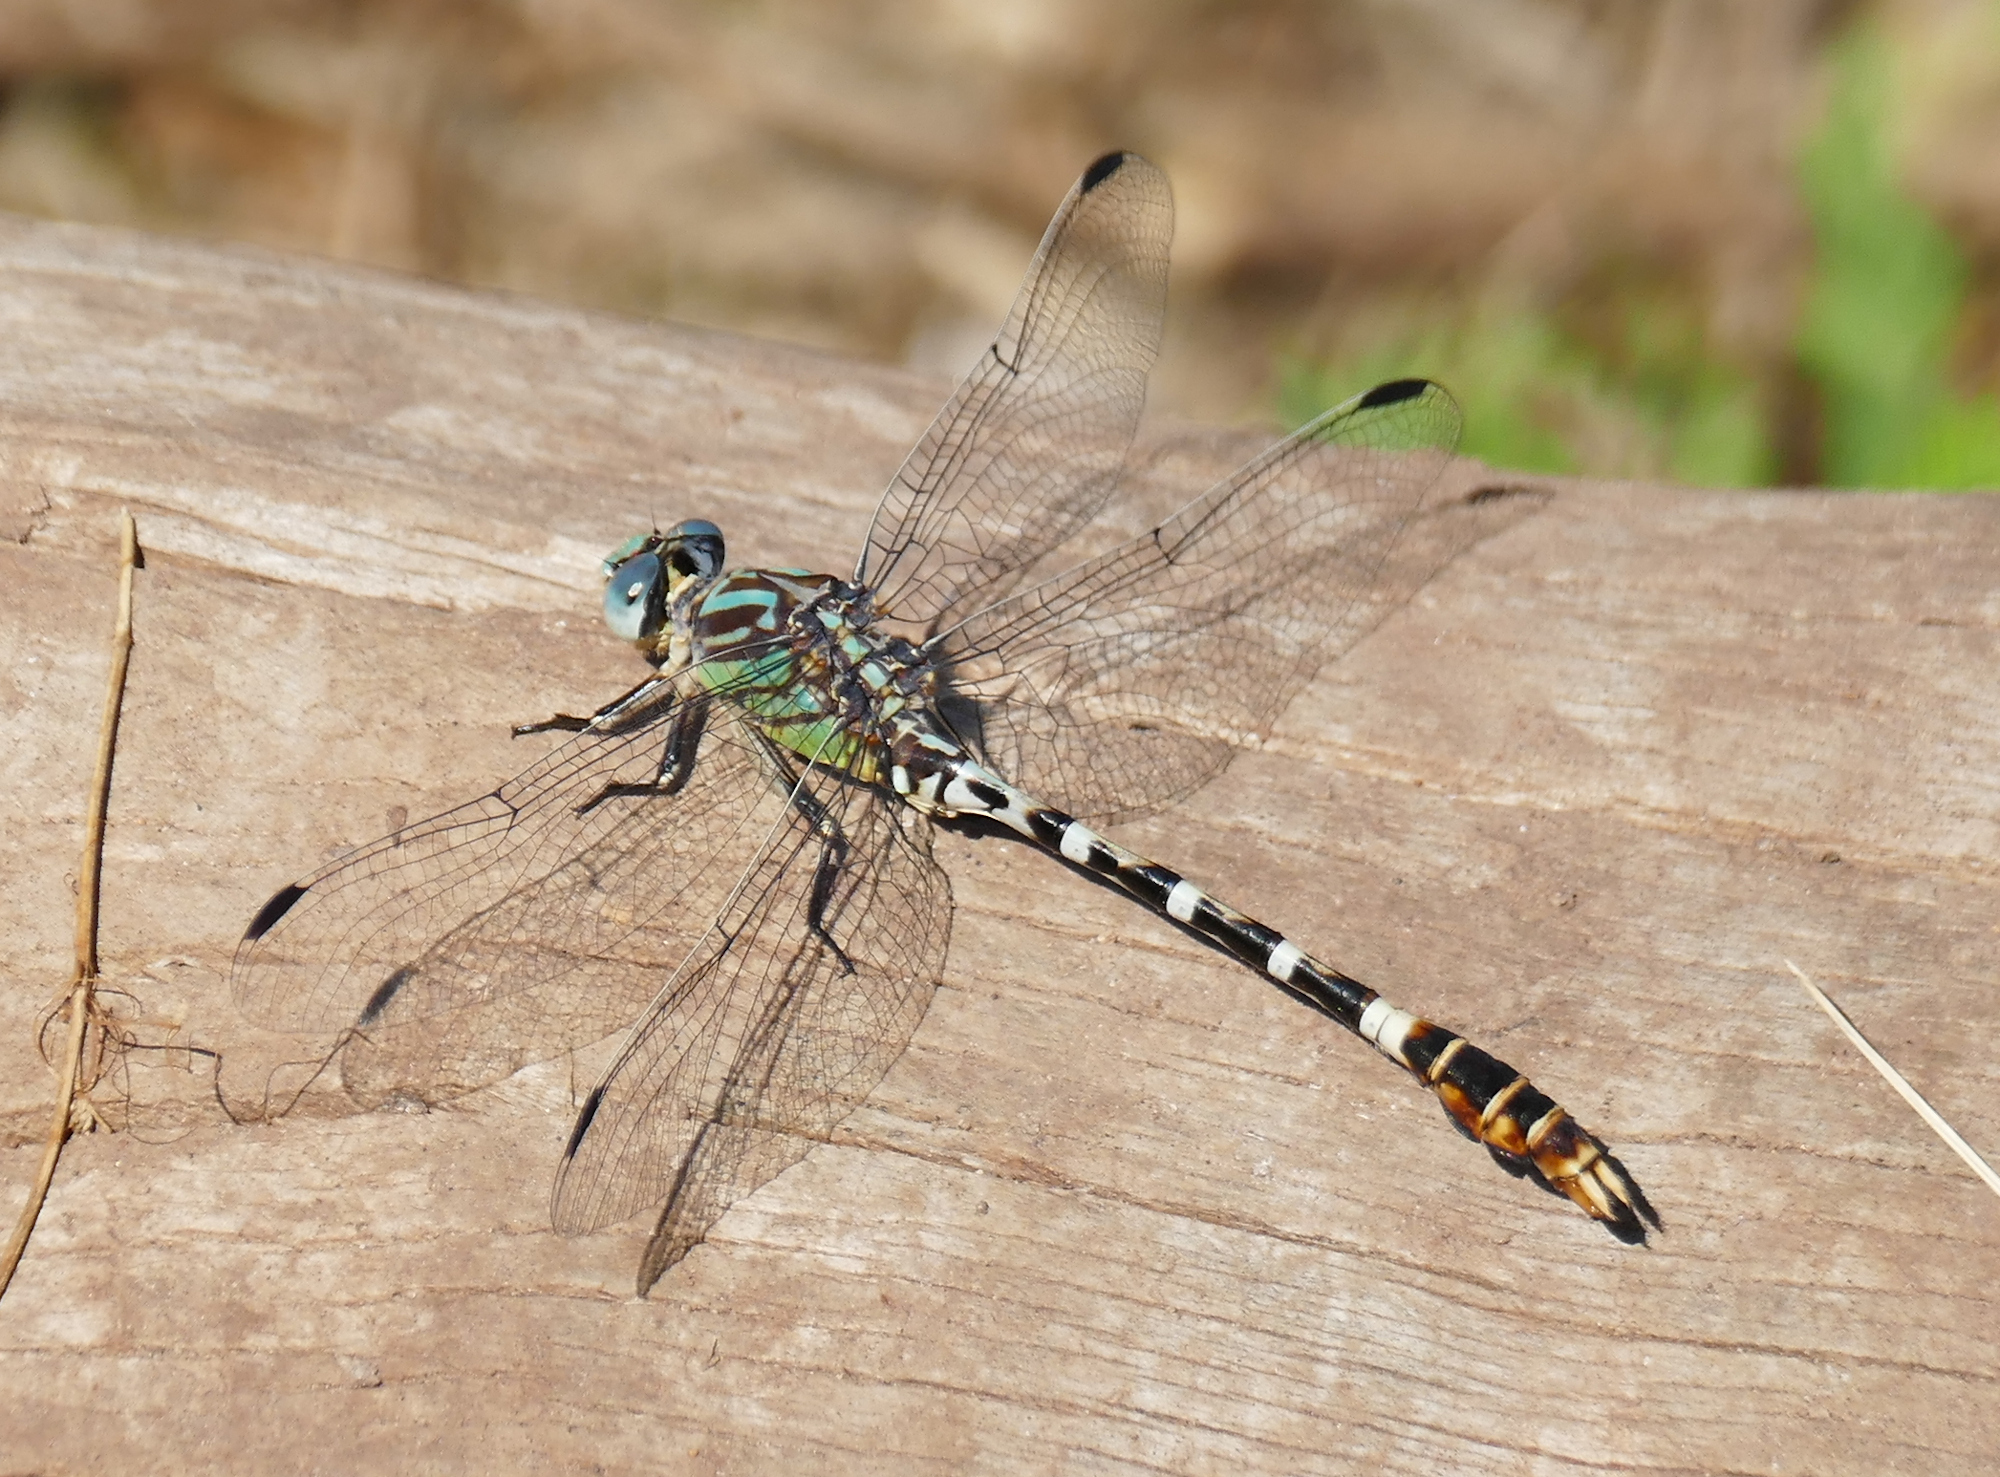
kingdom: Animalia
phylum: Arthropoda
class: Insecta
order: Odonata
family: Gomphidae
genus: Erpetogomphus
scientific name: Erpetogomphus lampropeltis
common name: Serpent ringtail
